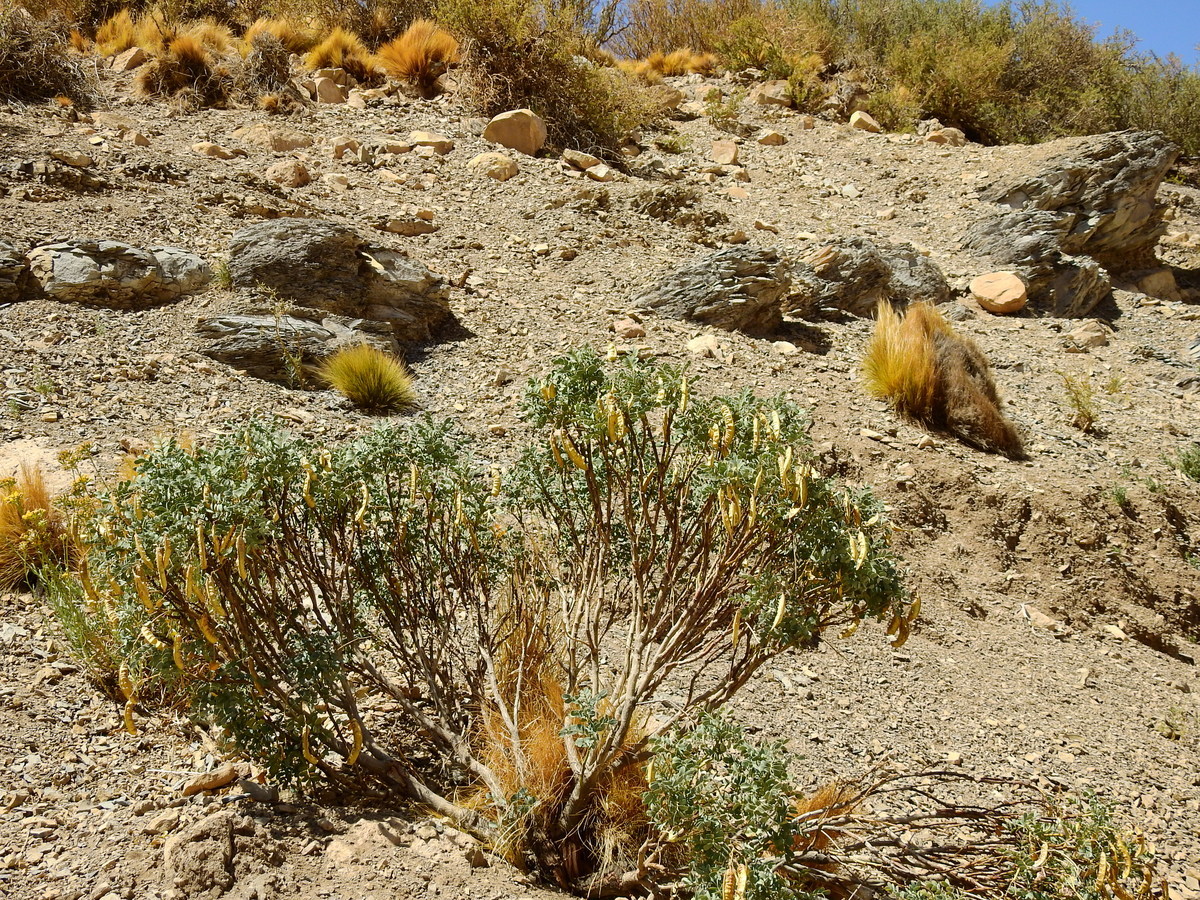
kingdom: Plantae
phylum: Tracheophyta
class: Magnoliopsida
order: Fabales
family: Fabaceae
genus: Senna
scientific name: Senna arnottiana
